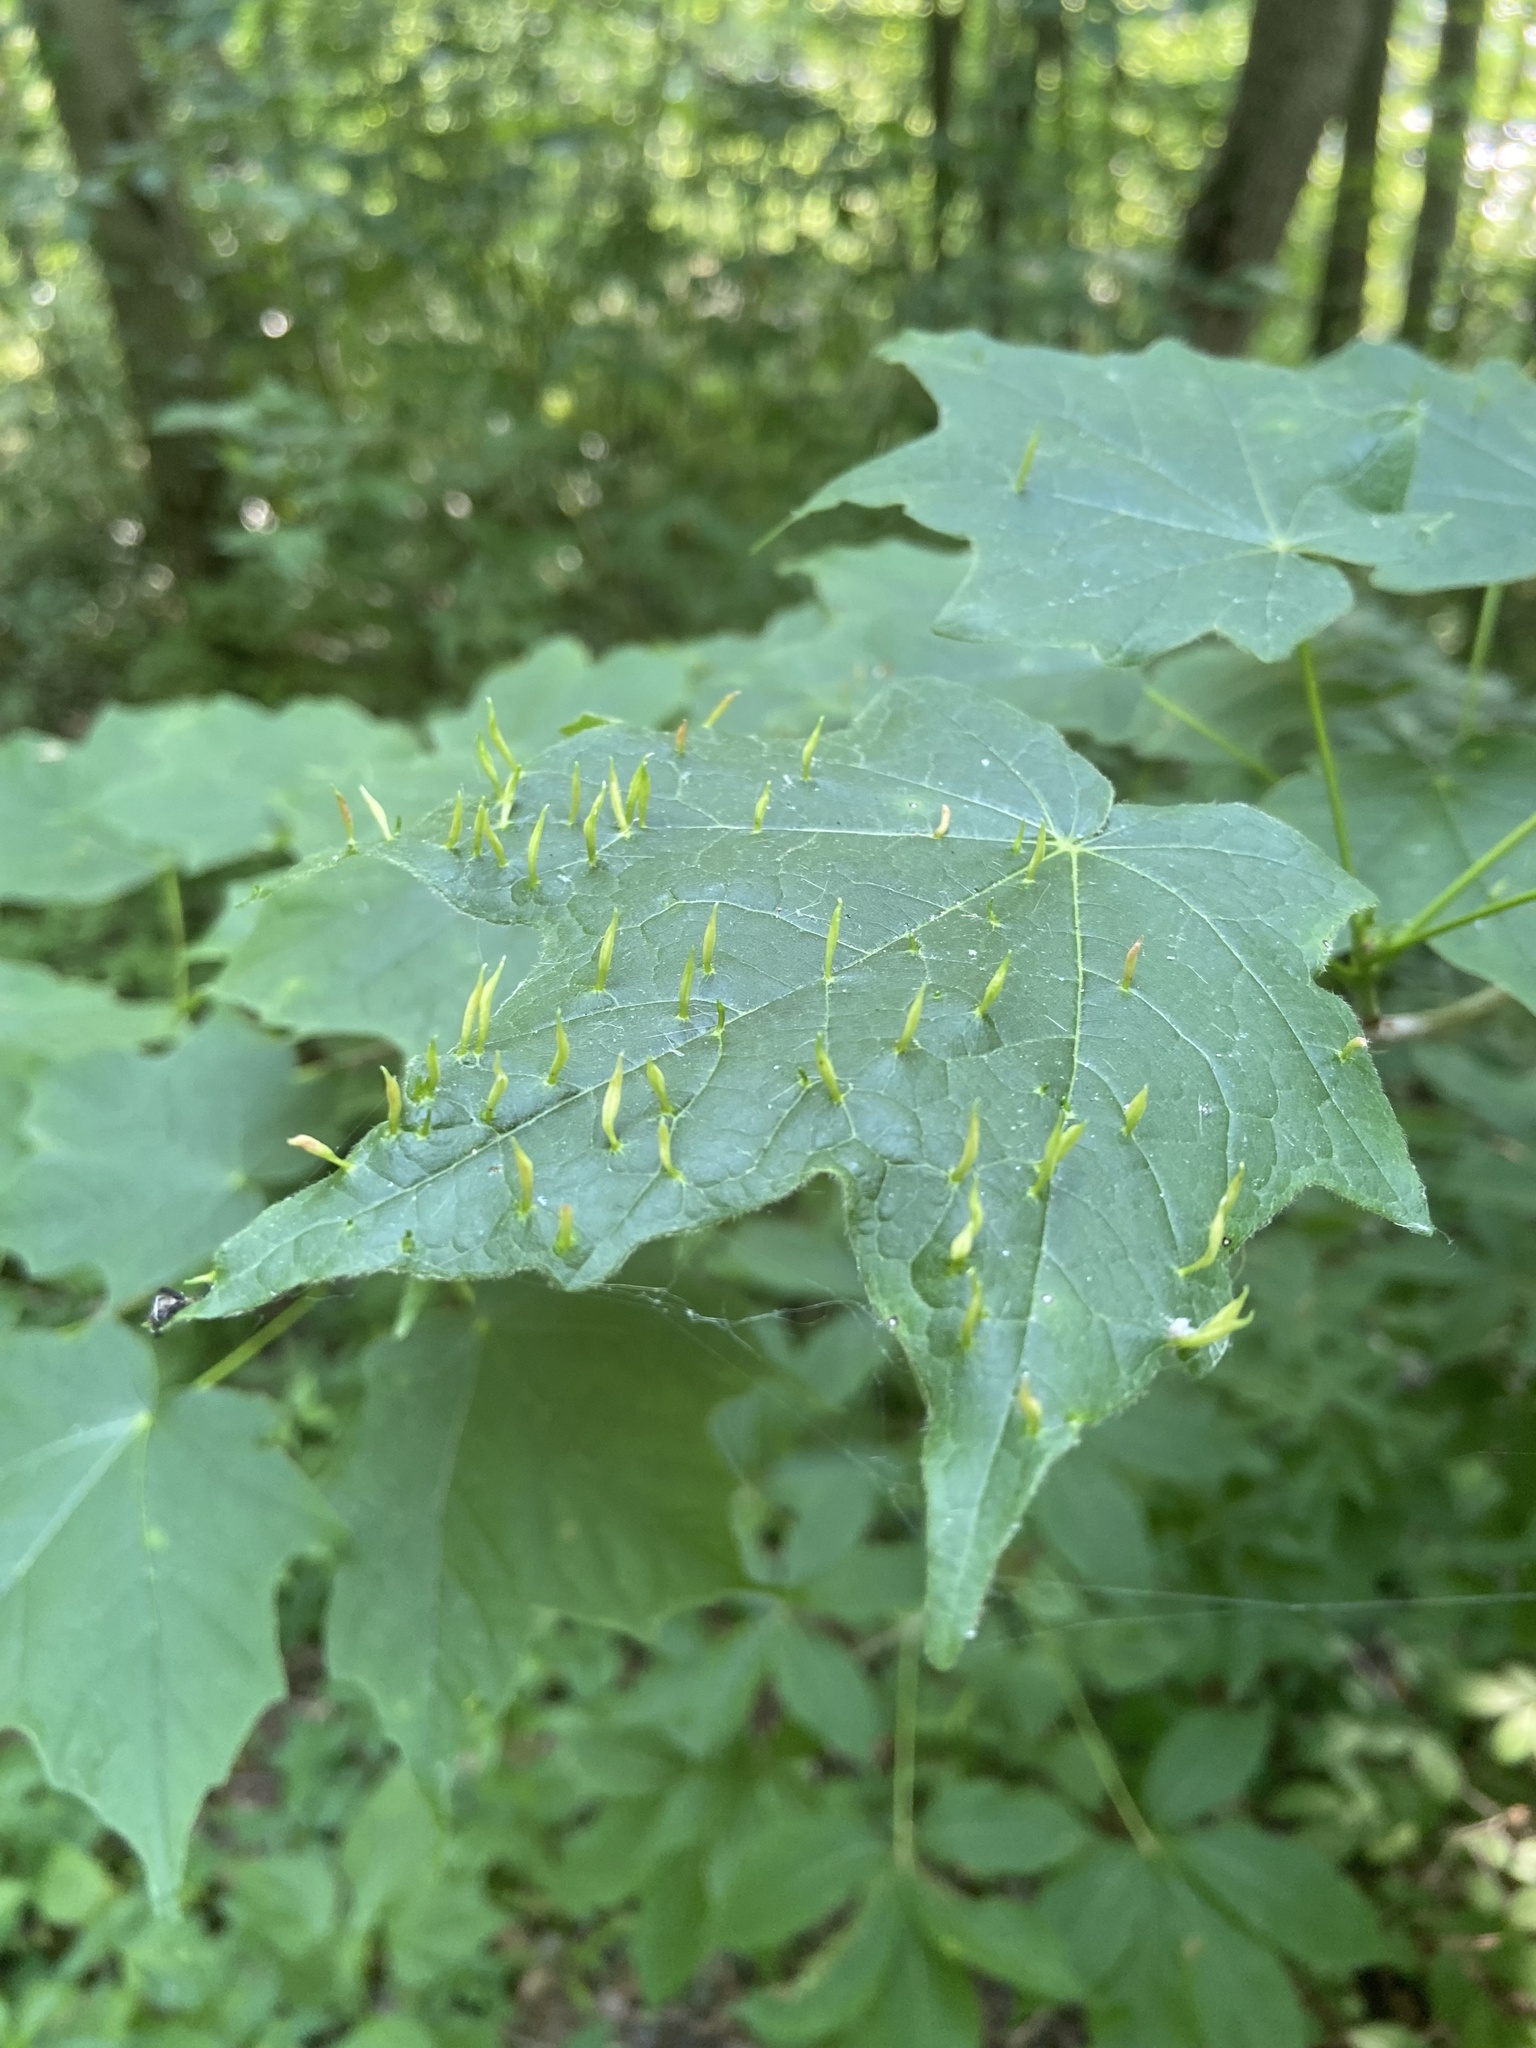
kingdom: Animalia
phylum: Arthropoda
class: Arachnida
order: Trombidiformes
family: Eriophyidae
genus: Vasates
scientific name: Vasates aceriscrumena
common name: Maple spindle gall mite
